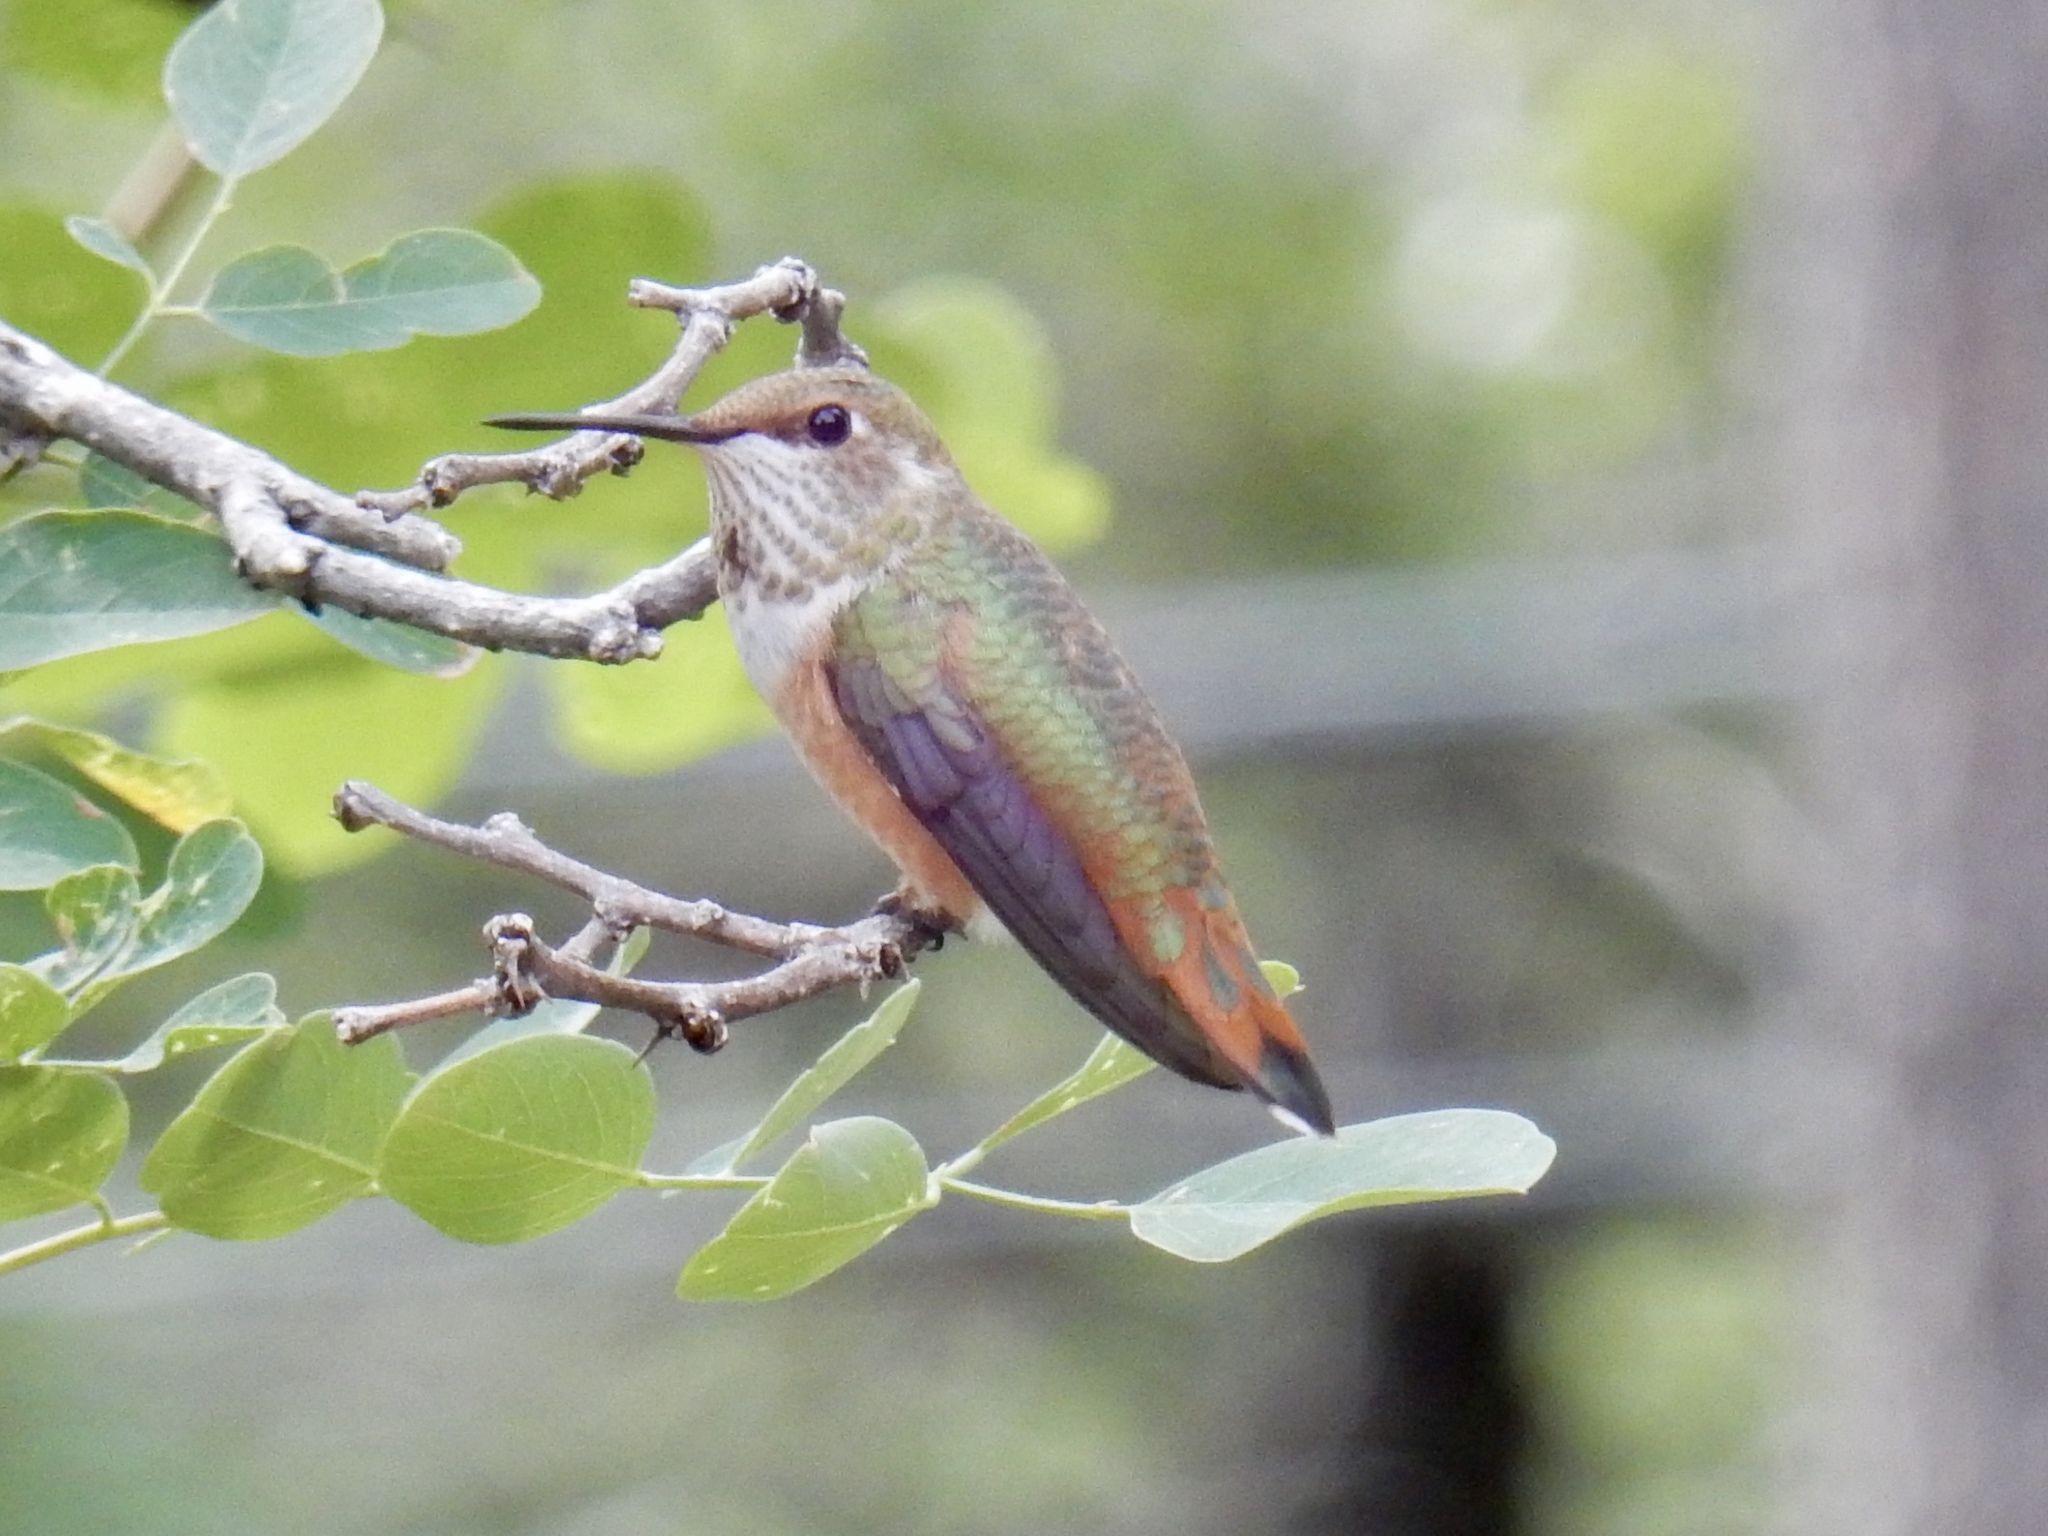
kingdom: Animalia
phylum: Chordata
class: Aves
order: Apodiformes
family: Trochilidae
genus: Selasphorus
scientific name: Selasphorus rufus
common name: Rufous hummingbird
